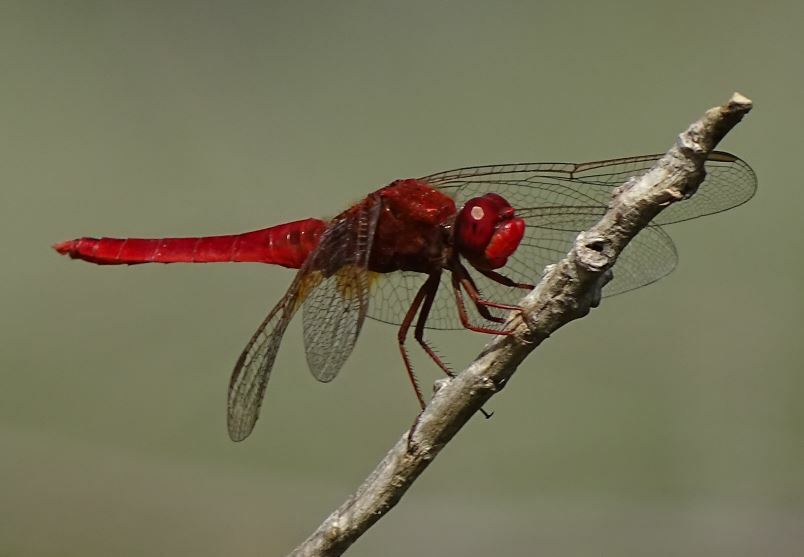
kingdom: Animalia
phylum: Arthropoda
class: Insecta
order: Odonata
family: Libellulidae
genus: Crocothemis
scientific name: Crocothemis erythraea
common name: Scarlet dragonfly
